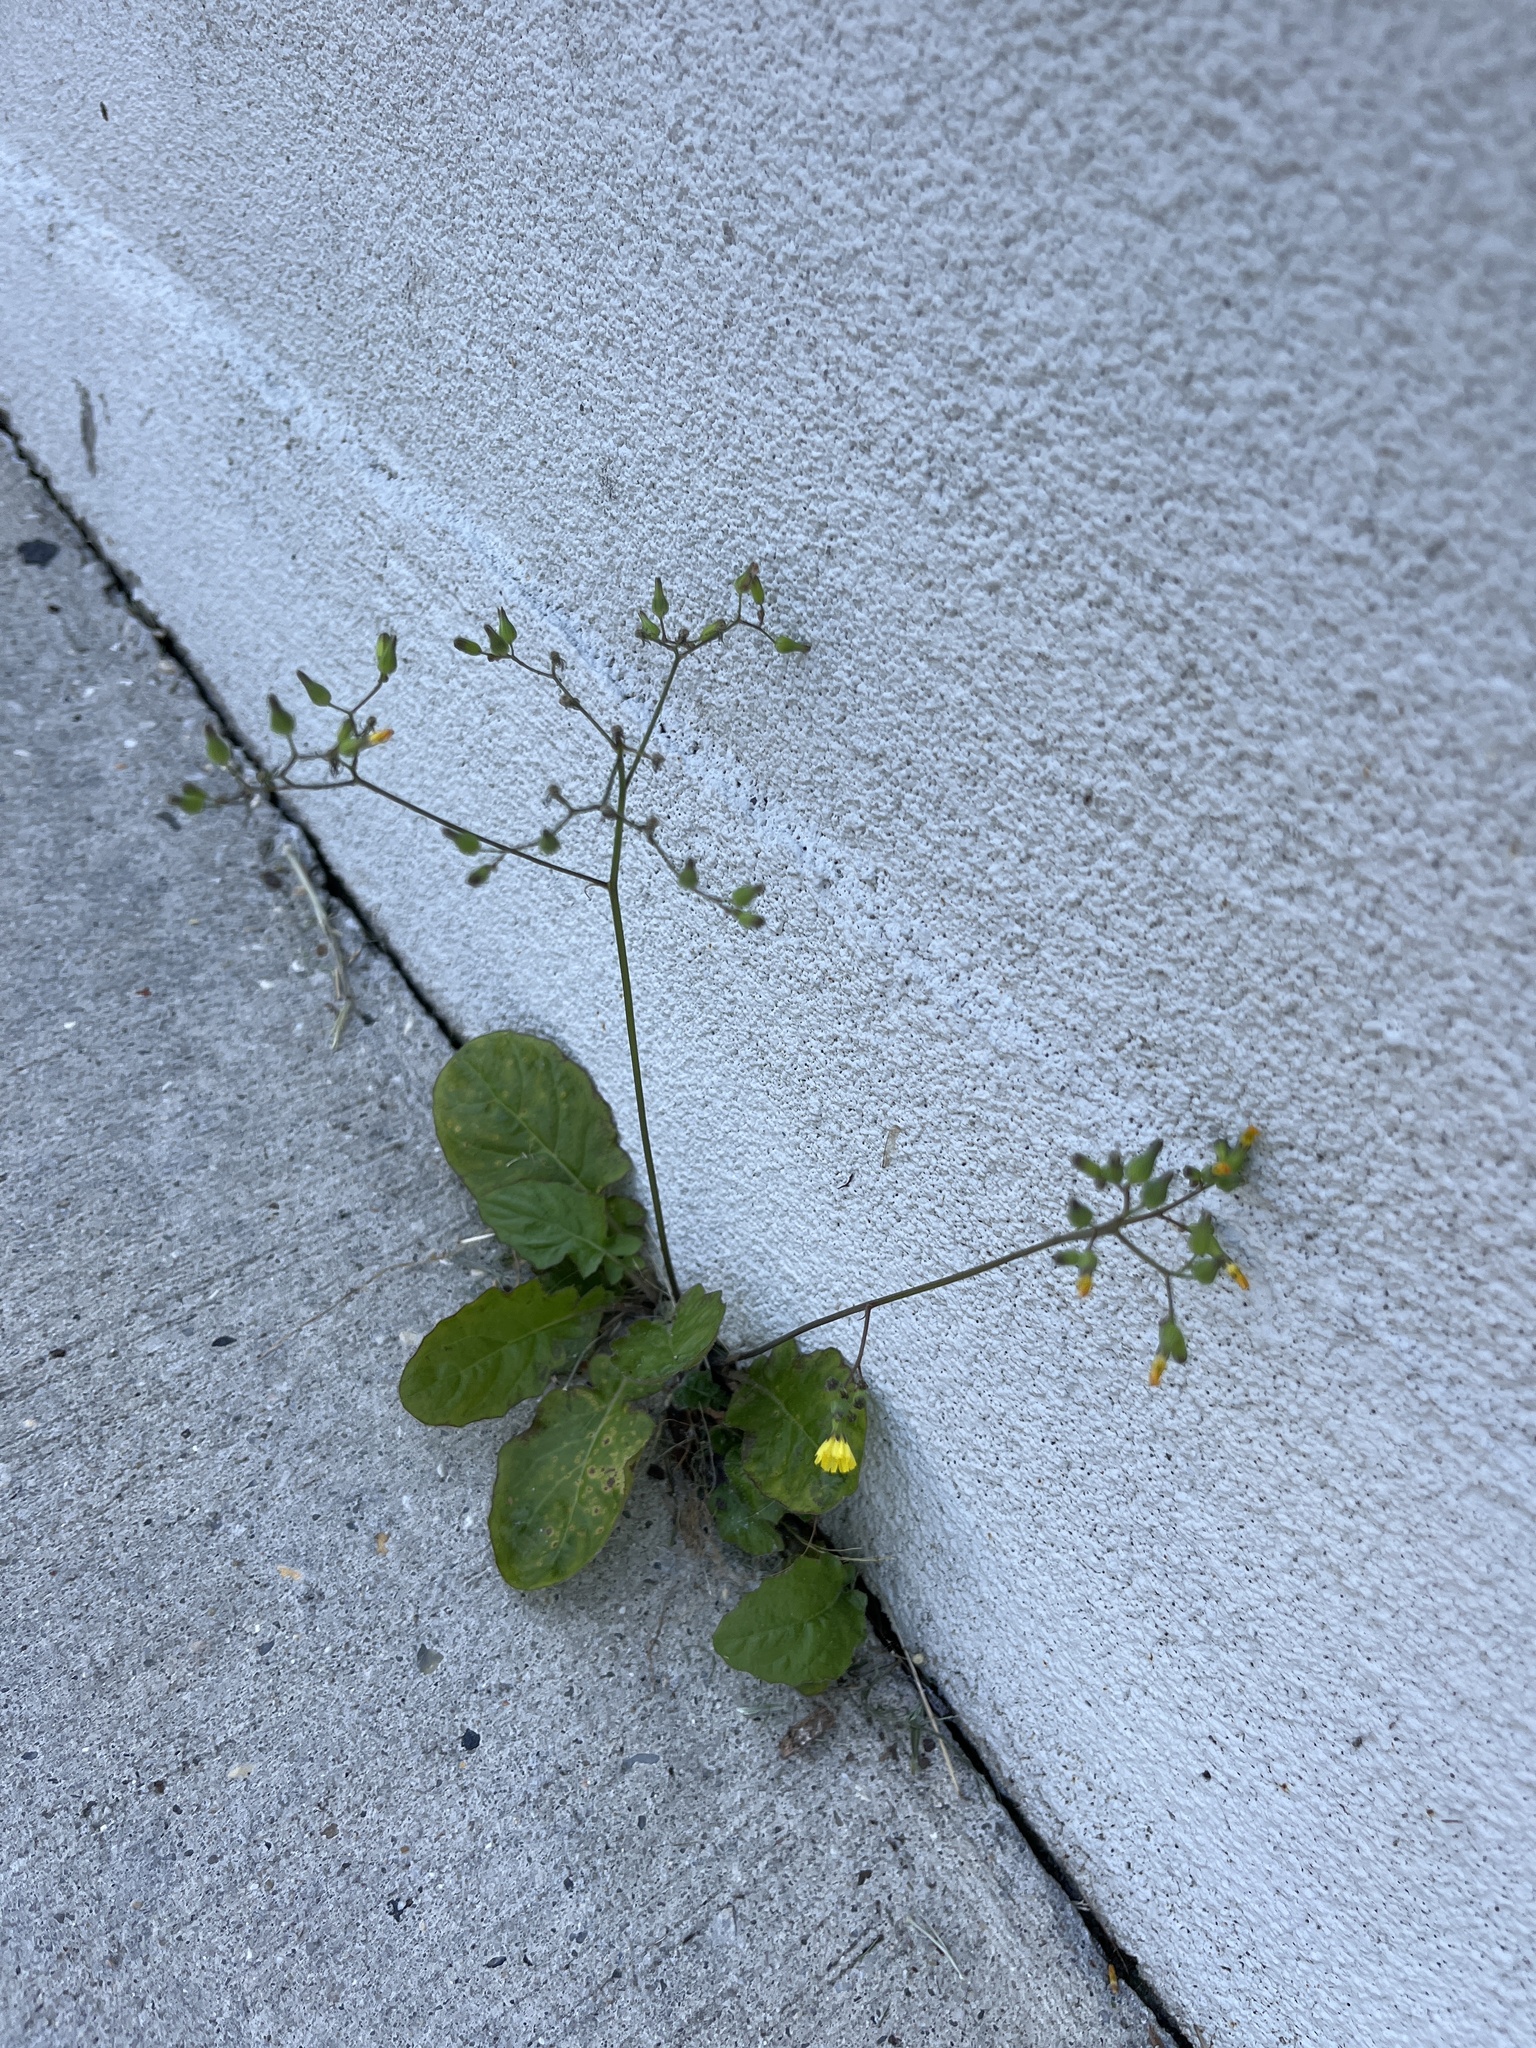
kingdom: Plantae
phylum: Tracheophyta
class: Magnoliopsida
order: Asterales
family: Asteraceae
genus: Youngia
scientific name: Youngia japonica
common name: Oriental false hawksbeard
